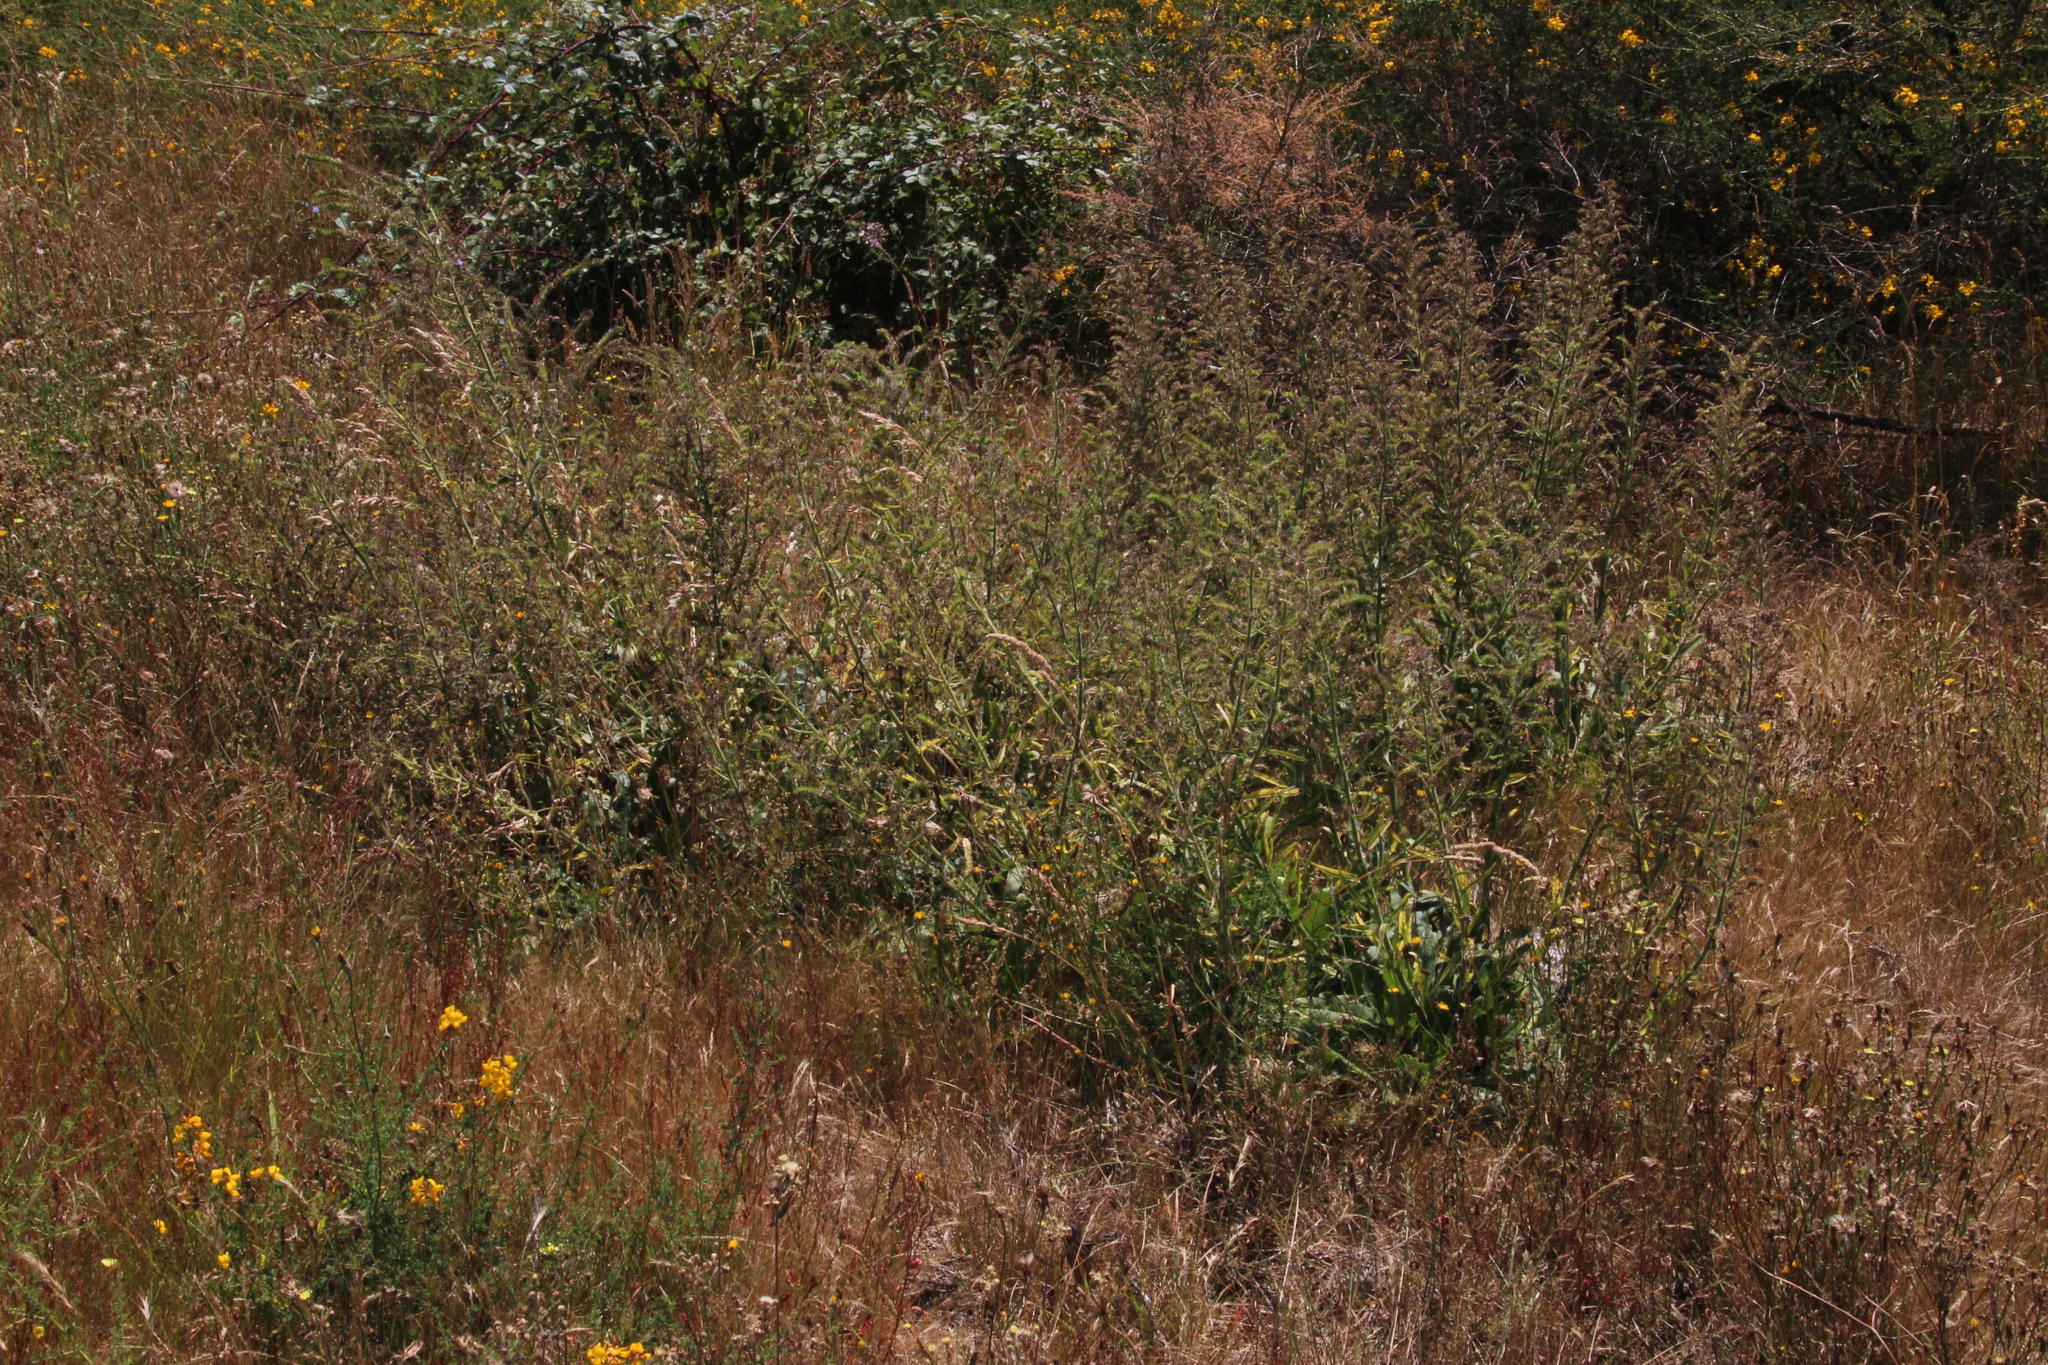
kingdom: Plantae
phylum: Tracheophyta
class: Magnoliopsida
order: Boraginales
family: Boraginaceae
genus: Echium
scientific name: Echium lusitanicum
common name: Violet-vein viper's bugloss
